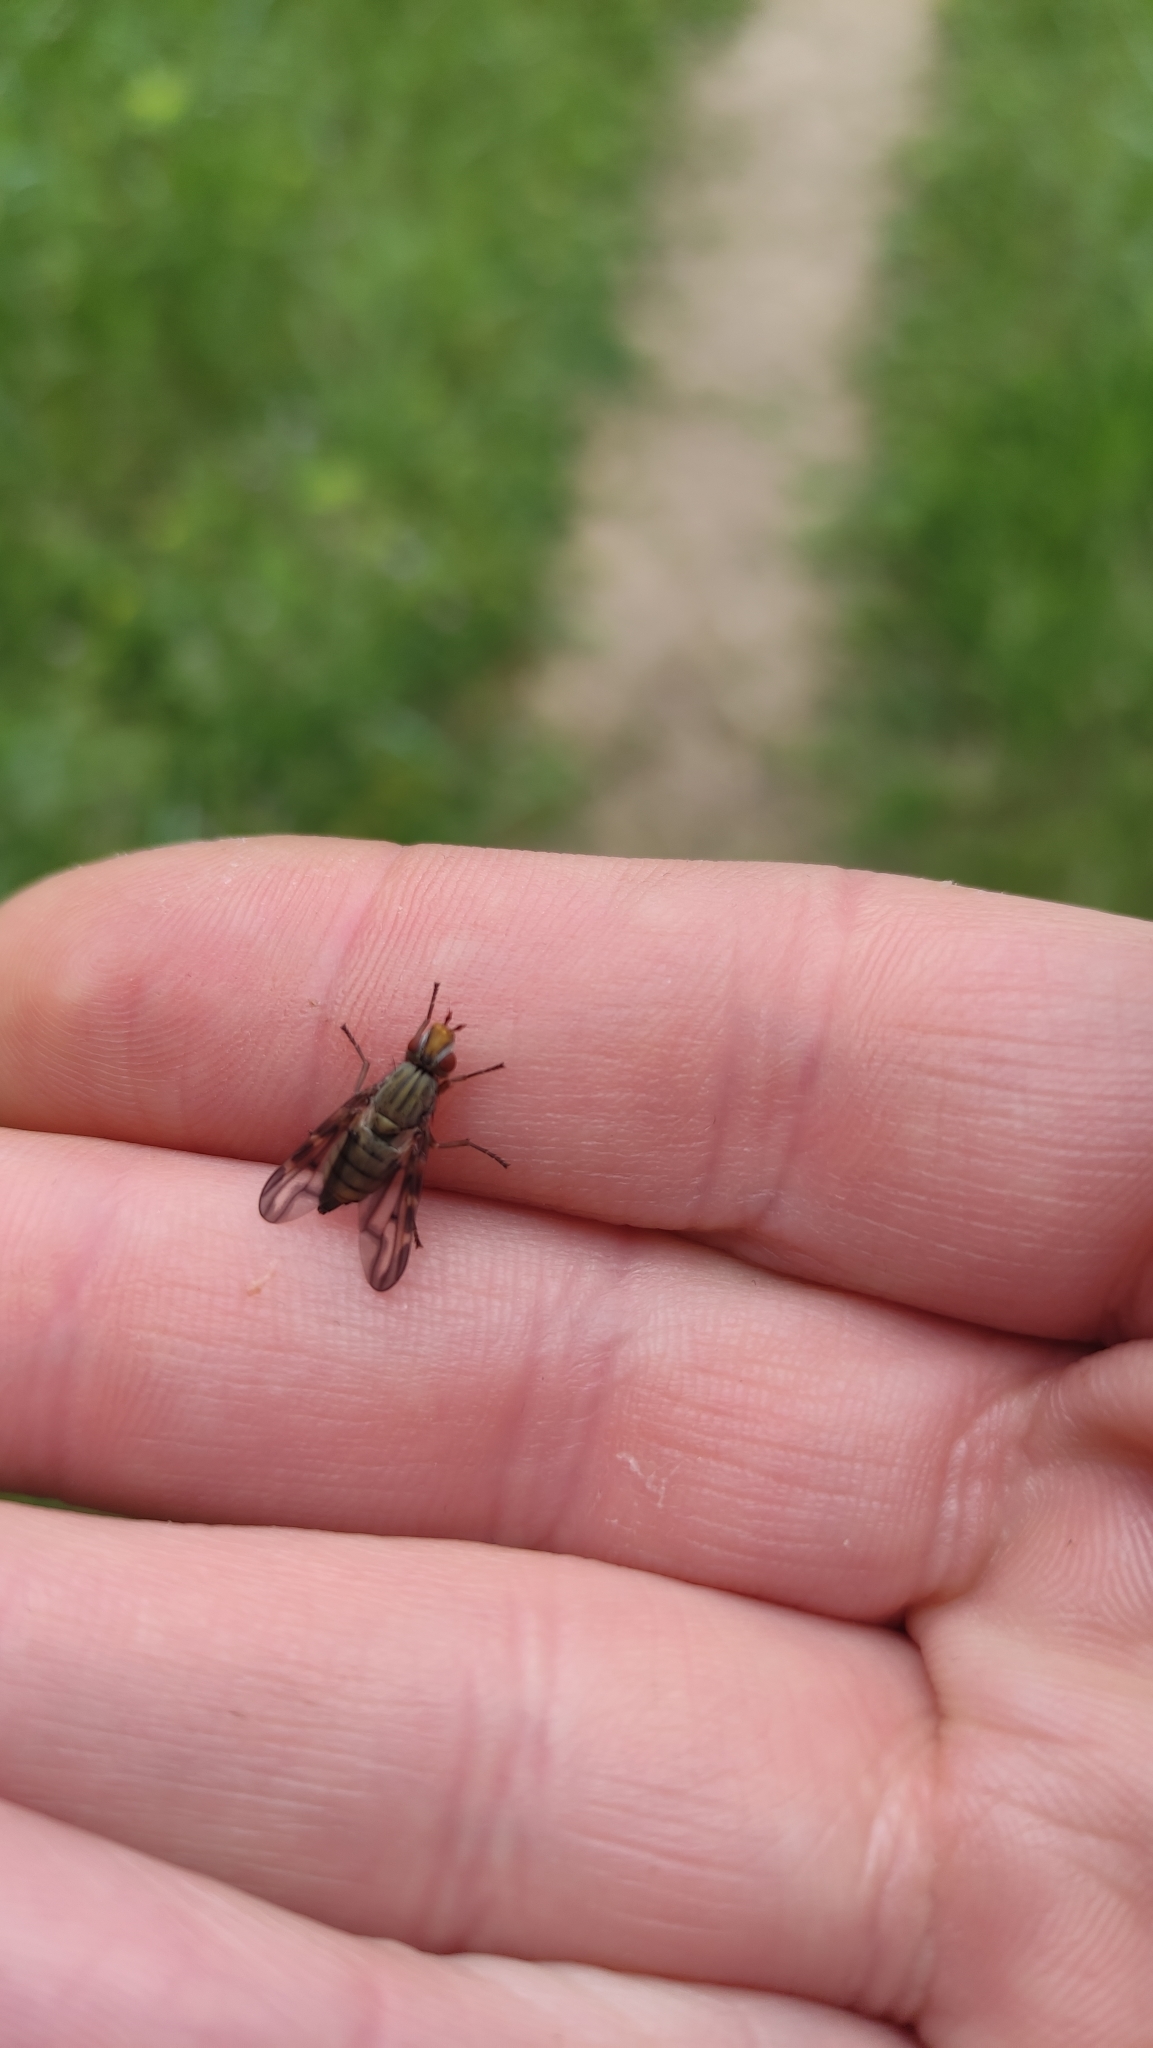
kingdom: Animalia
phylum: Arthropoda
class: Insecta
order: Diptera
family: Ulidiidae
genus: Otites
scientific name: Otites lamed
